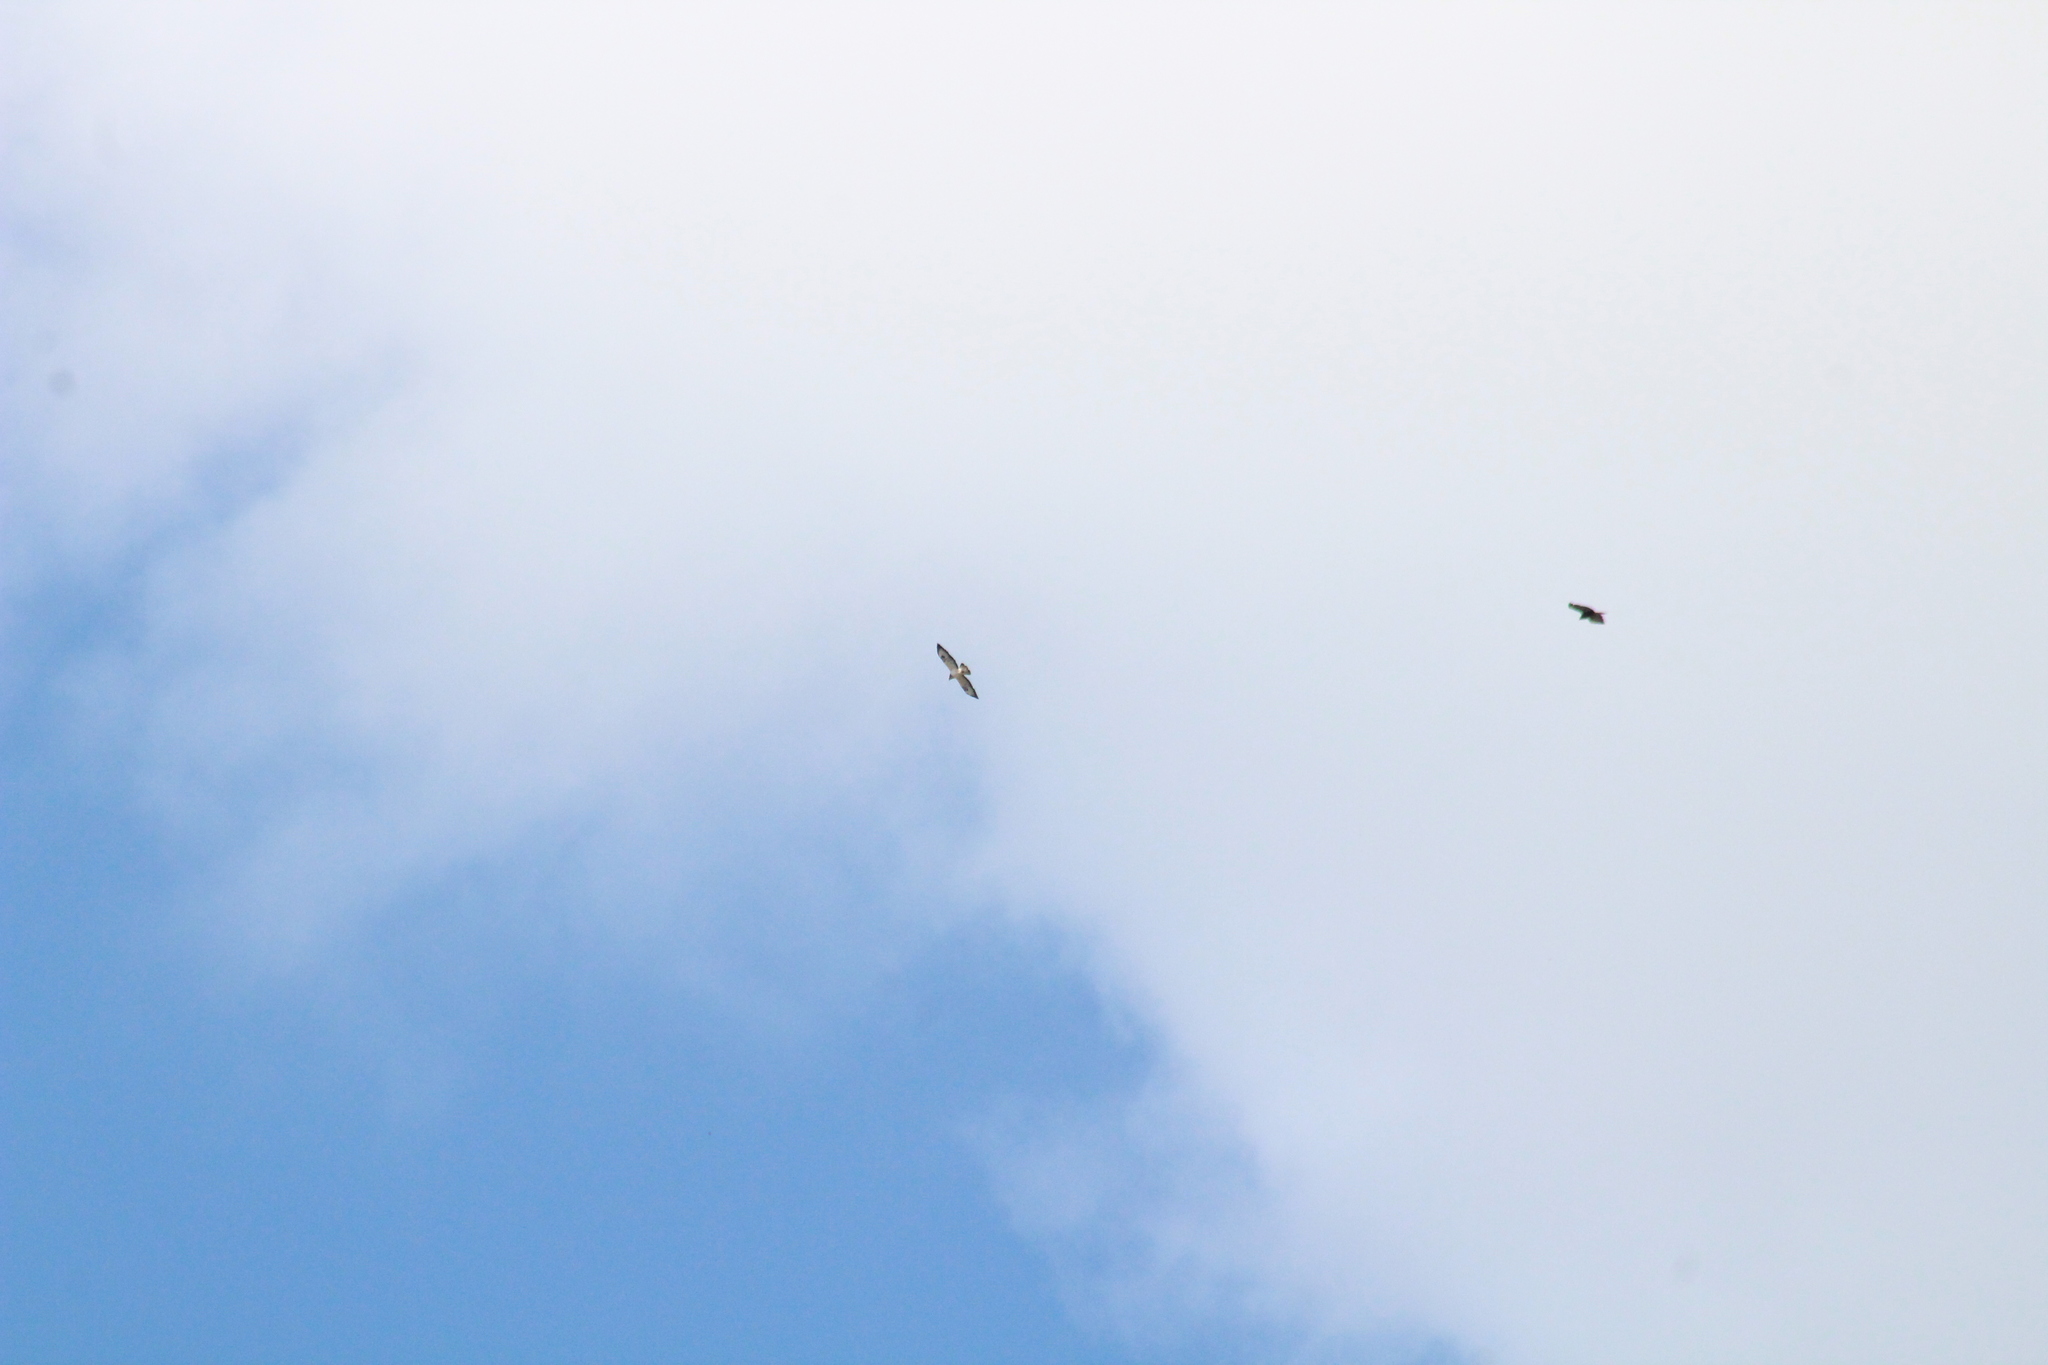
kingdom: Animalia
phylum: Chordata
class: Aves
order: Accipitriformes
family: Accipitridae
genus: Buteo
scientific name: Buteo buteo
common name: Common buzzard
